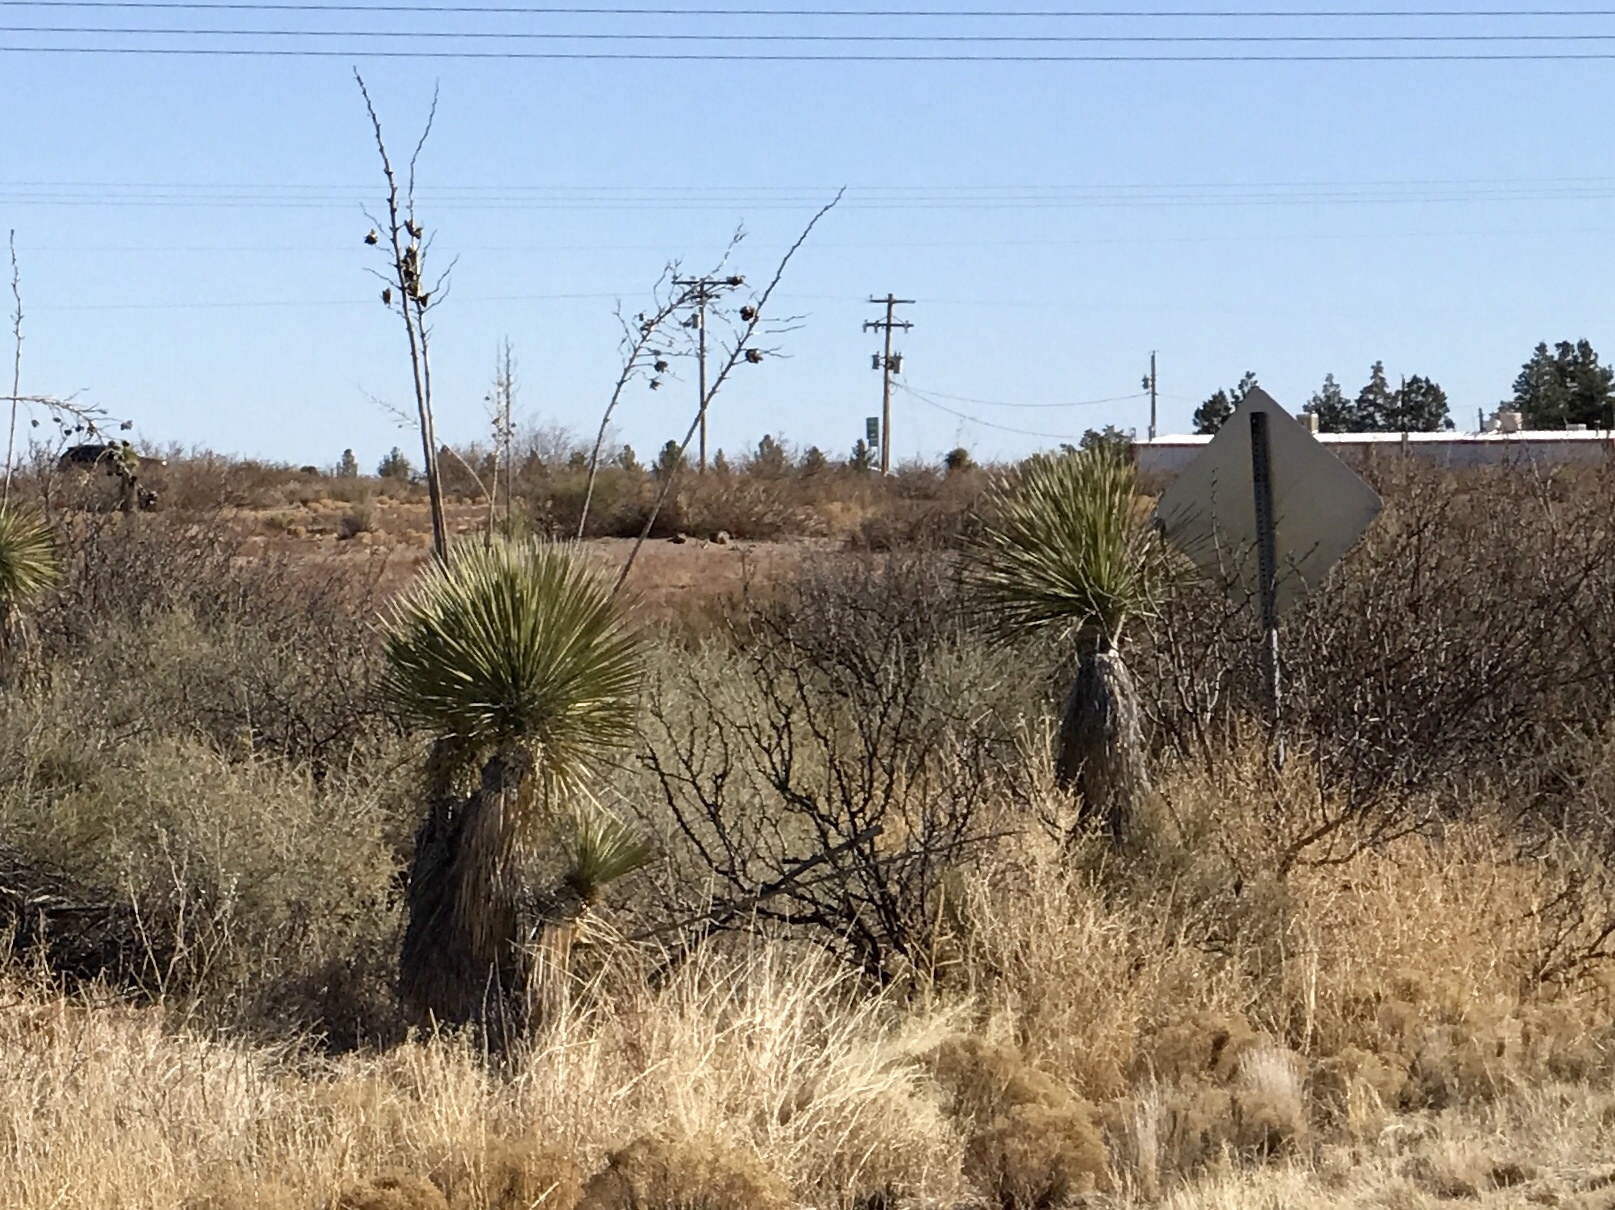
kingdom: Plantae
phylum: Tracheophyta
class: Liliopsida
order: Asparagales
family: Asparagaceae
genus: Yucca
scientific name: Yucca elata
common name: Palmella
